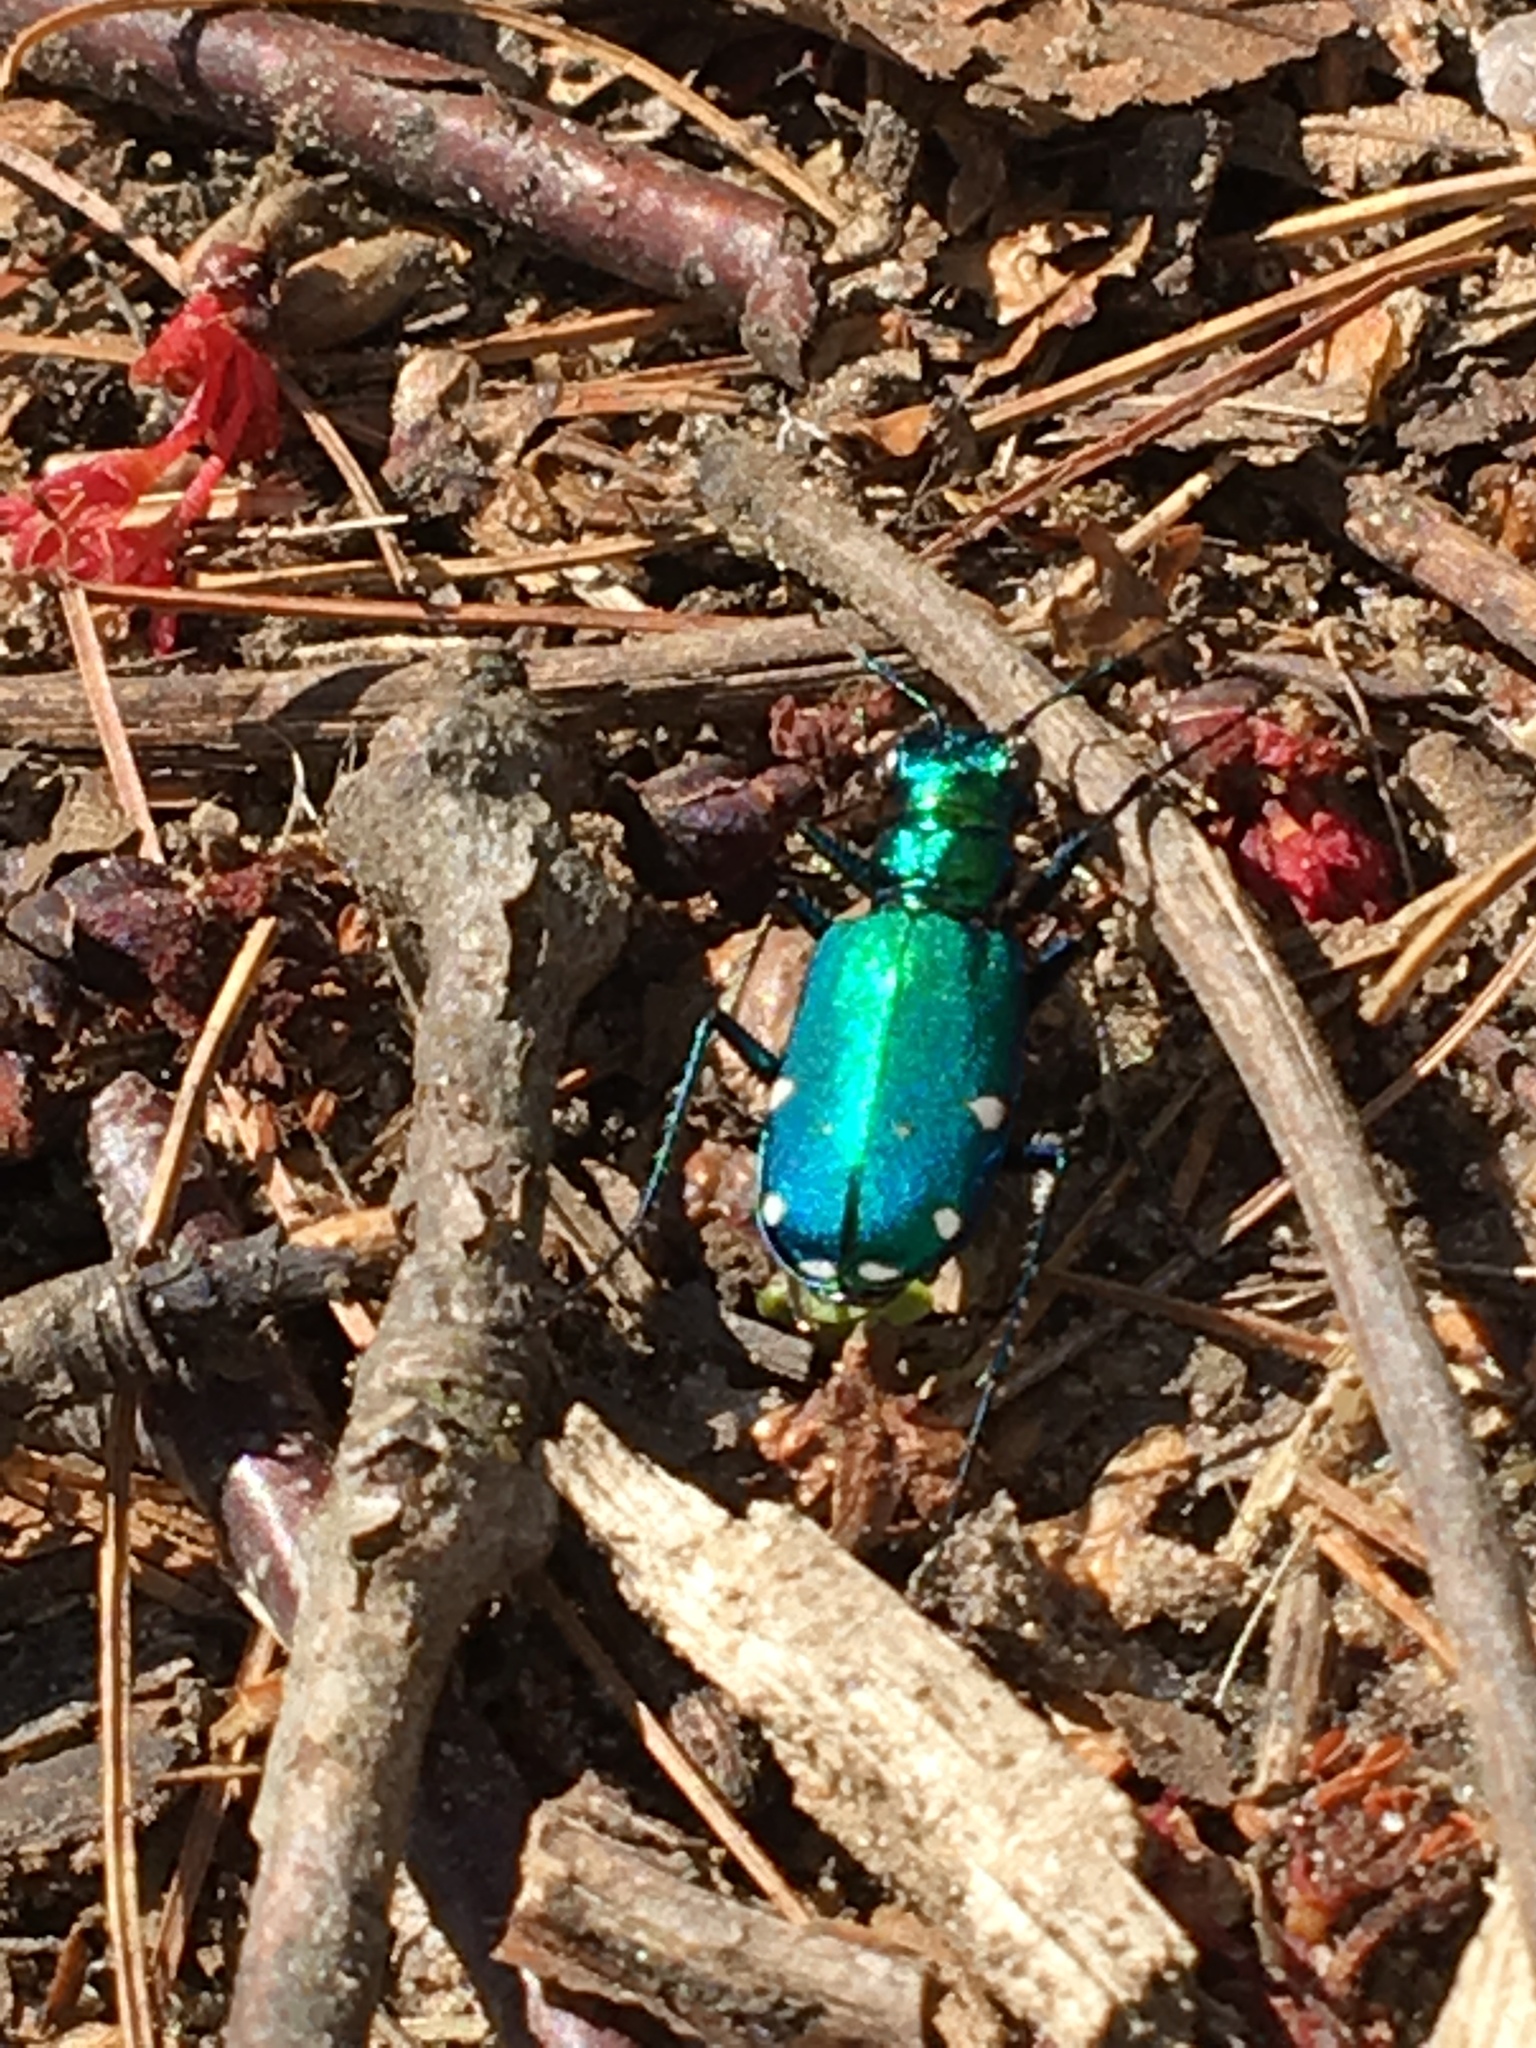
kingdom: Animalia
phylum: Arthropoda
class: Insecta
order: Coleoptera
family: Carabidae
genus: Cicindela
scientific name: Cicindela sexguttata
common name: Six-spotted tiger beetle
